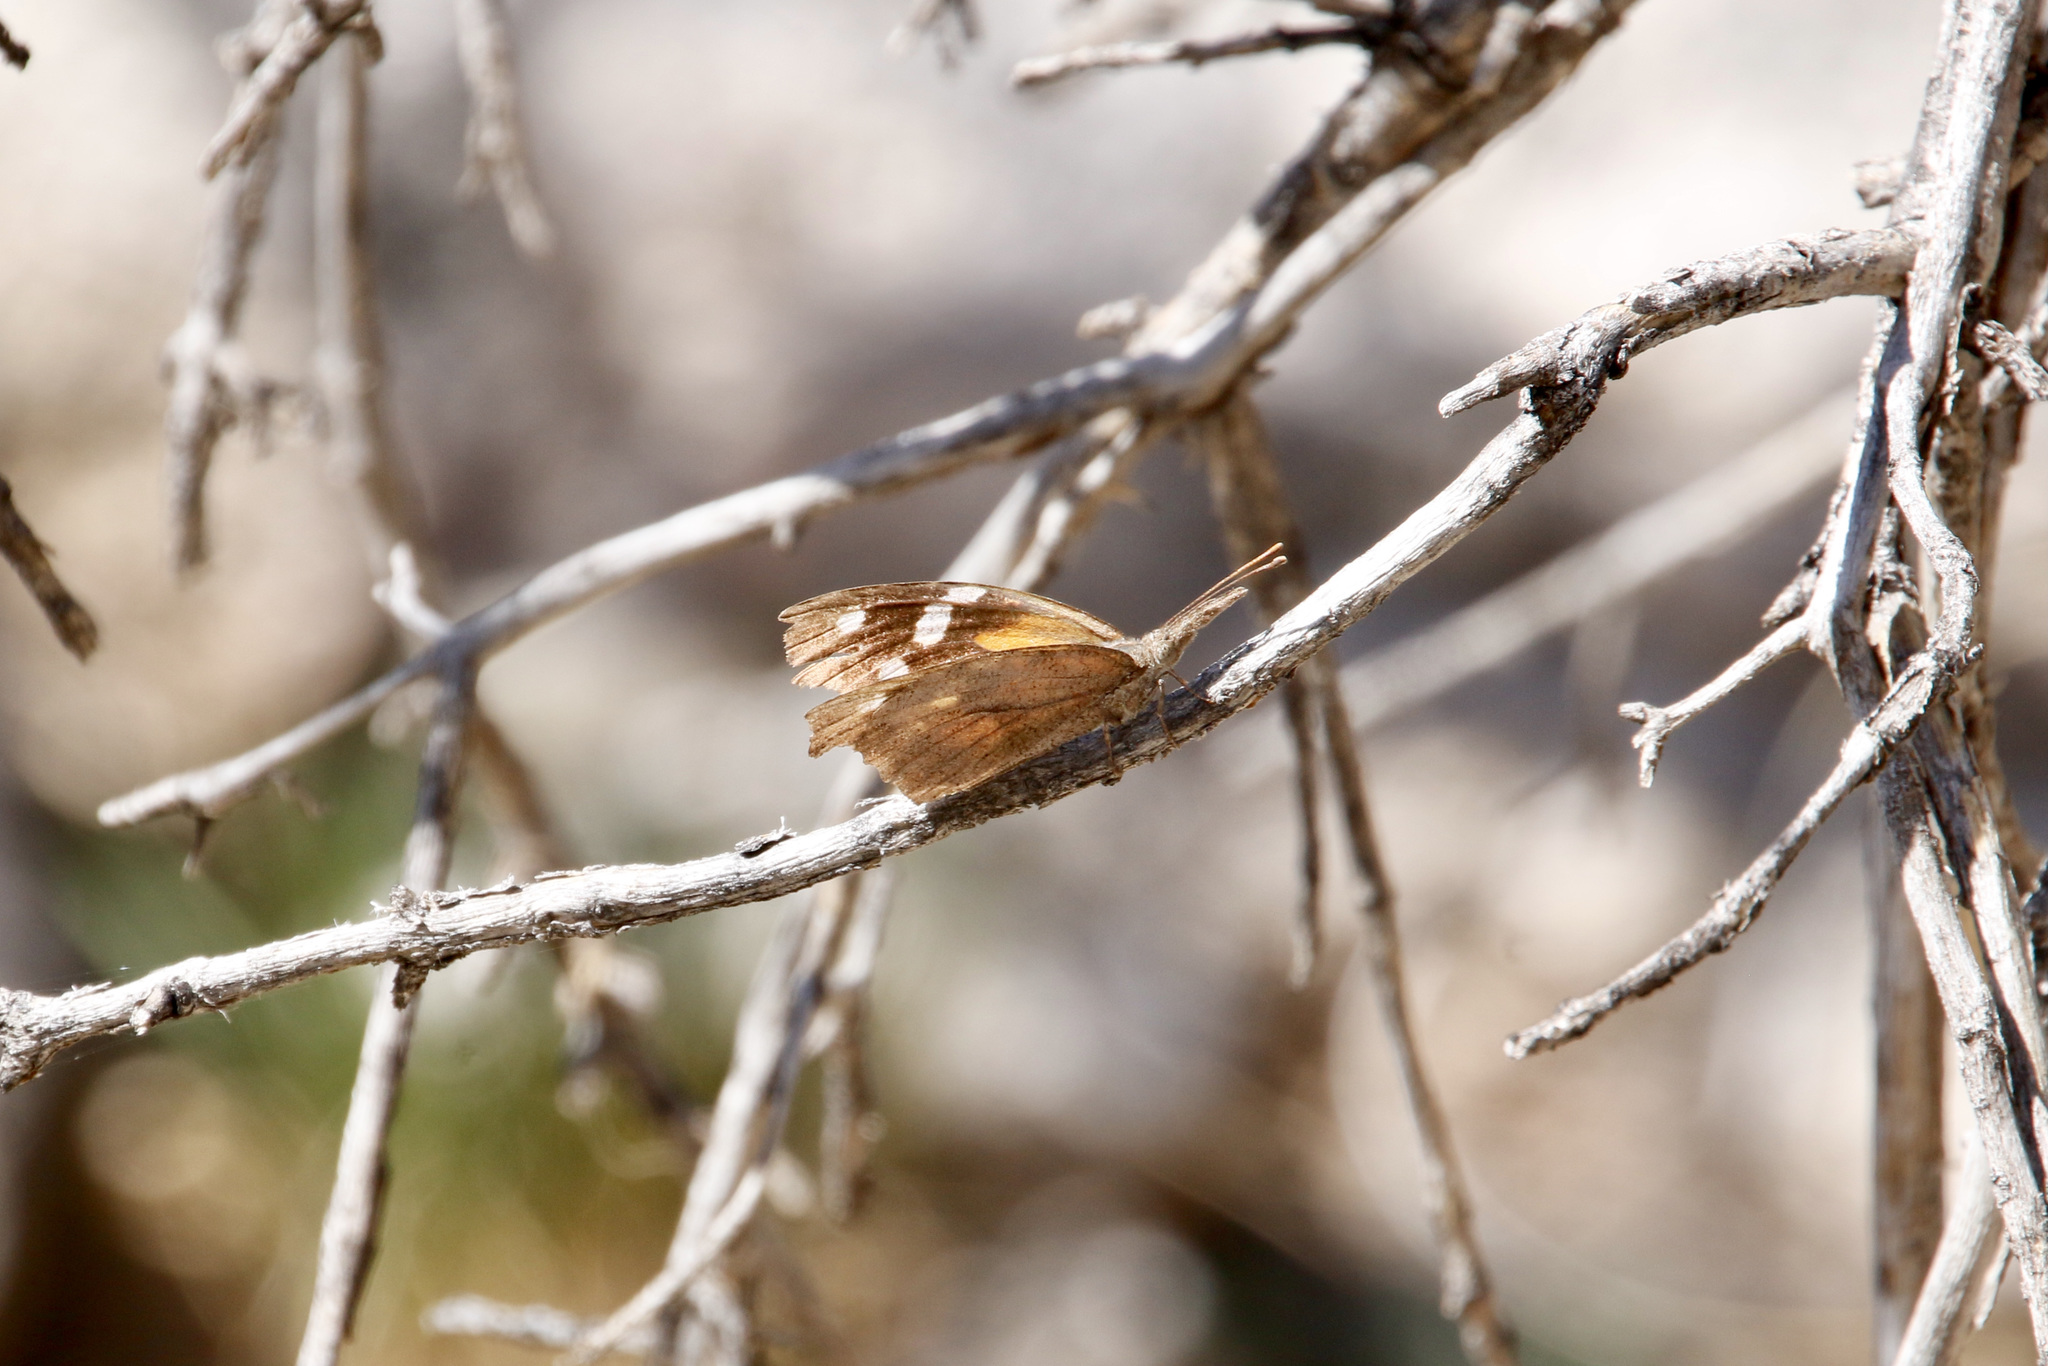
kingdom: Animalia
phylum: Arthropoda
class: Insecta
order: Lepidoptera
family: Nymphalidae
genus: Libytheana
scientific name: Libytheana carinenta
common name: American snout
